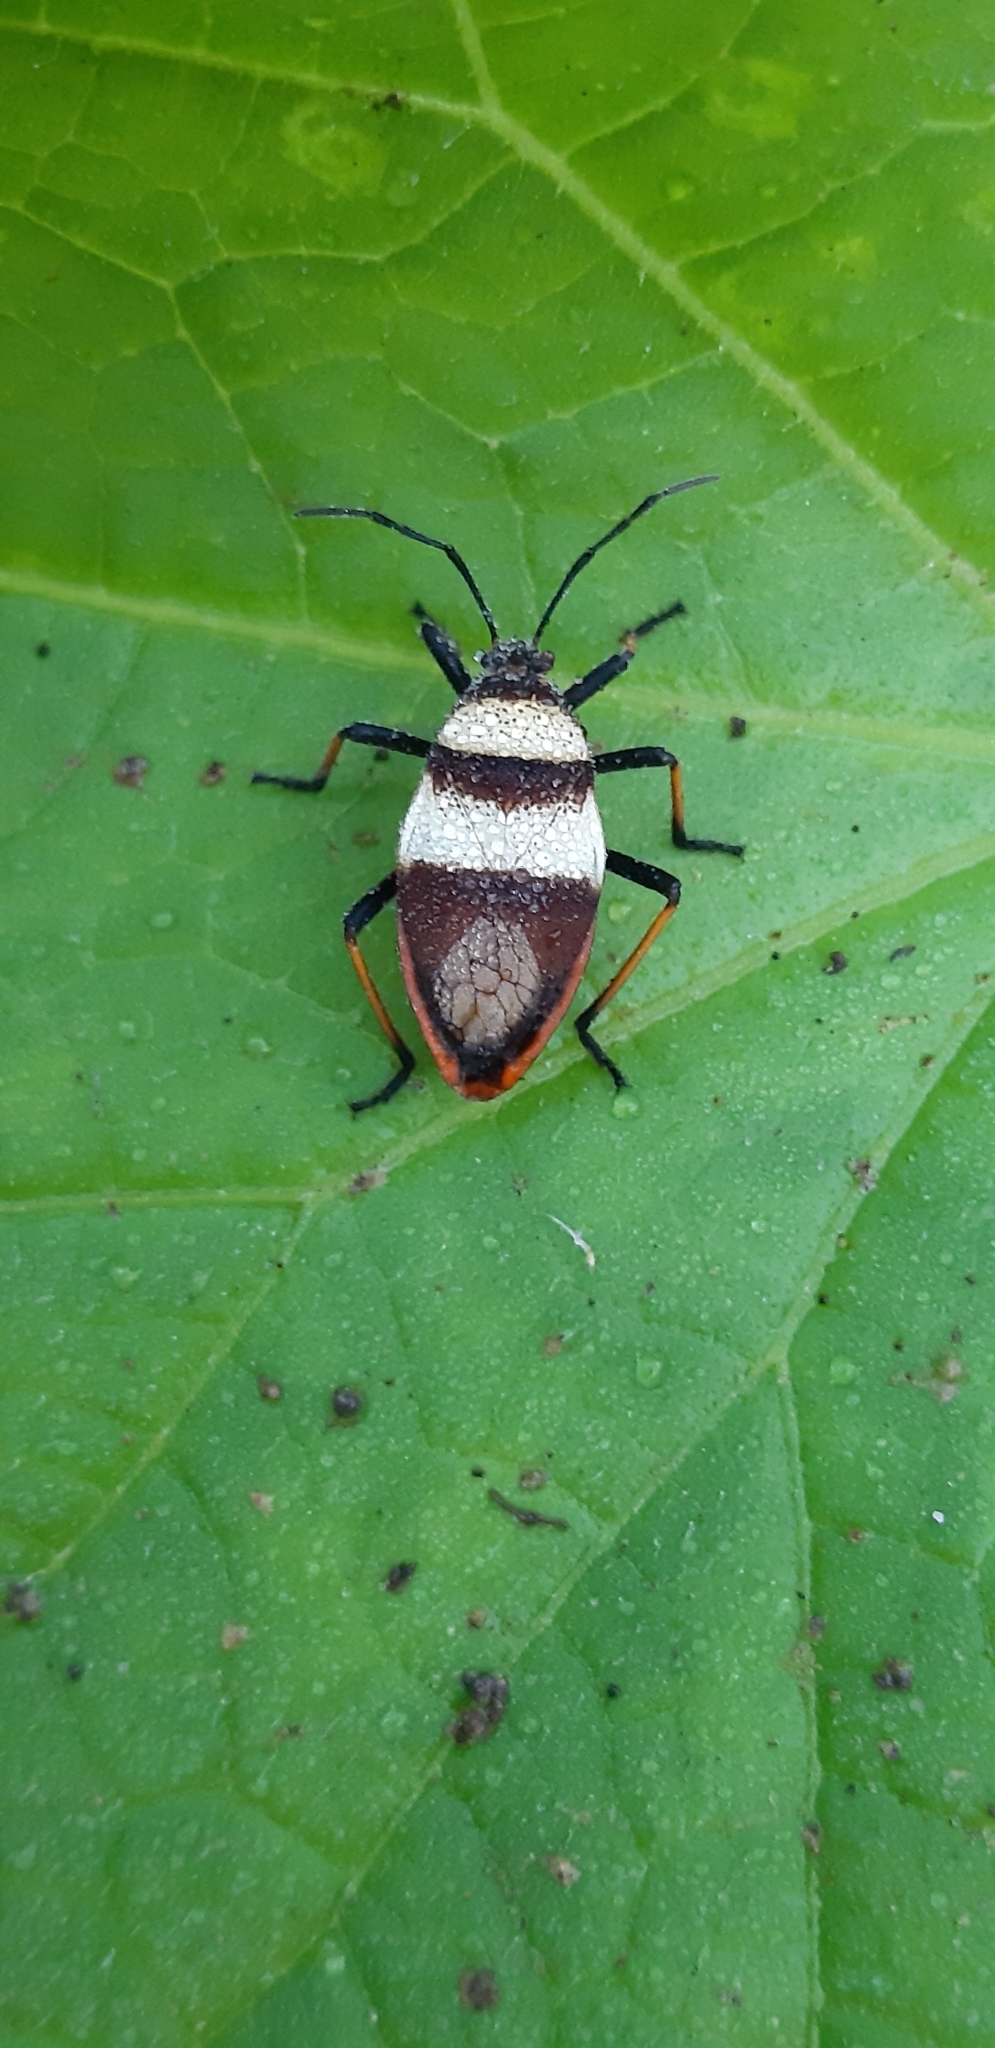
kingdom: Animalia
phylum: Arthropoda
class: Insecta
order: Hemiptera
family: Largidae
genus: Largus
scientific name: Largus balteatus
